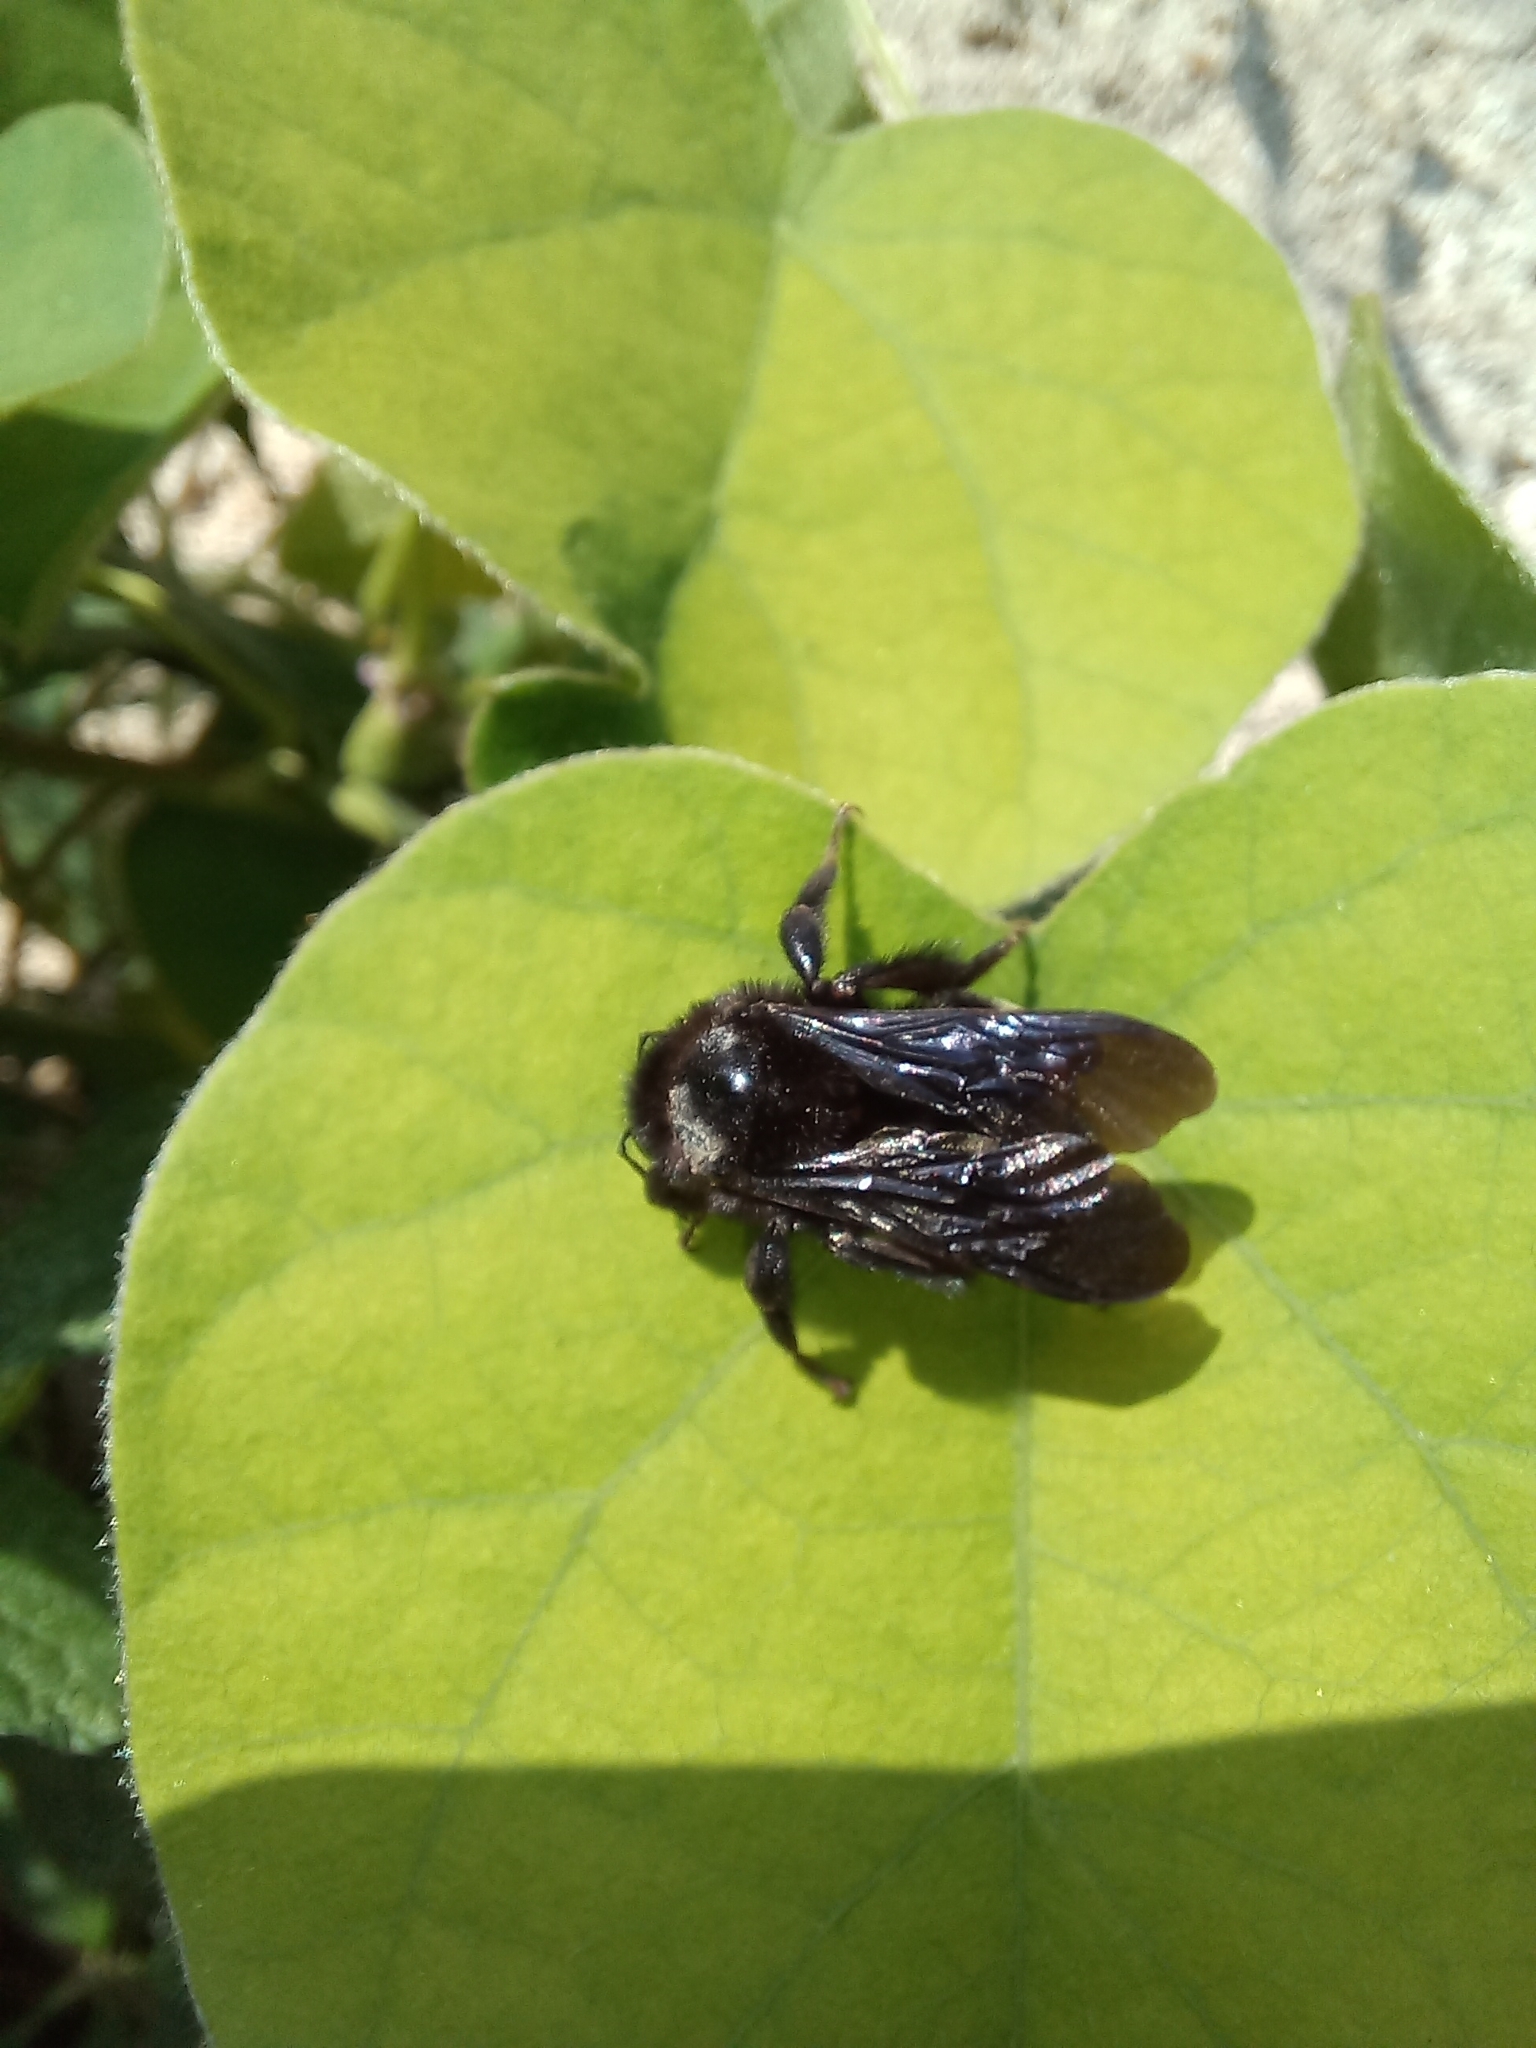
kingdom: Animalia
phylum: Arthropoda
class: Insecta
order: Hymenoptera
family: Apidae
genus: Bombus
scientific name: Bombus mexicanus
